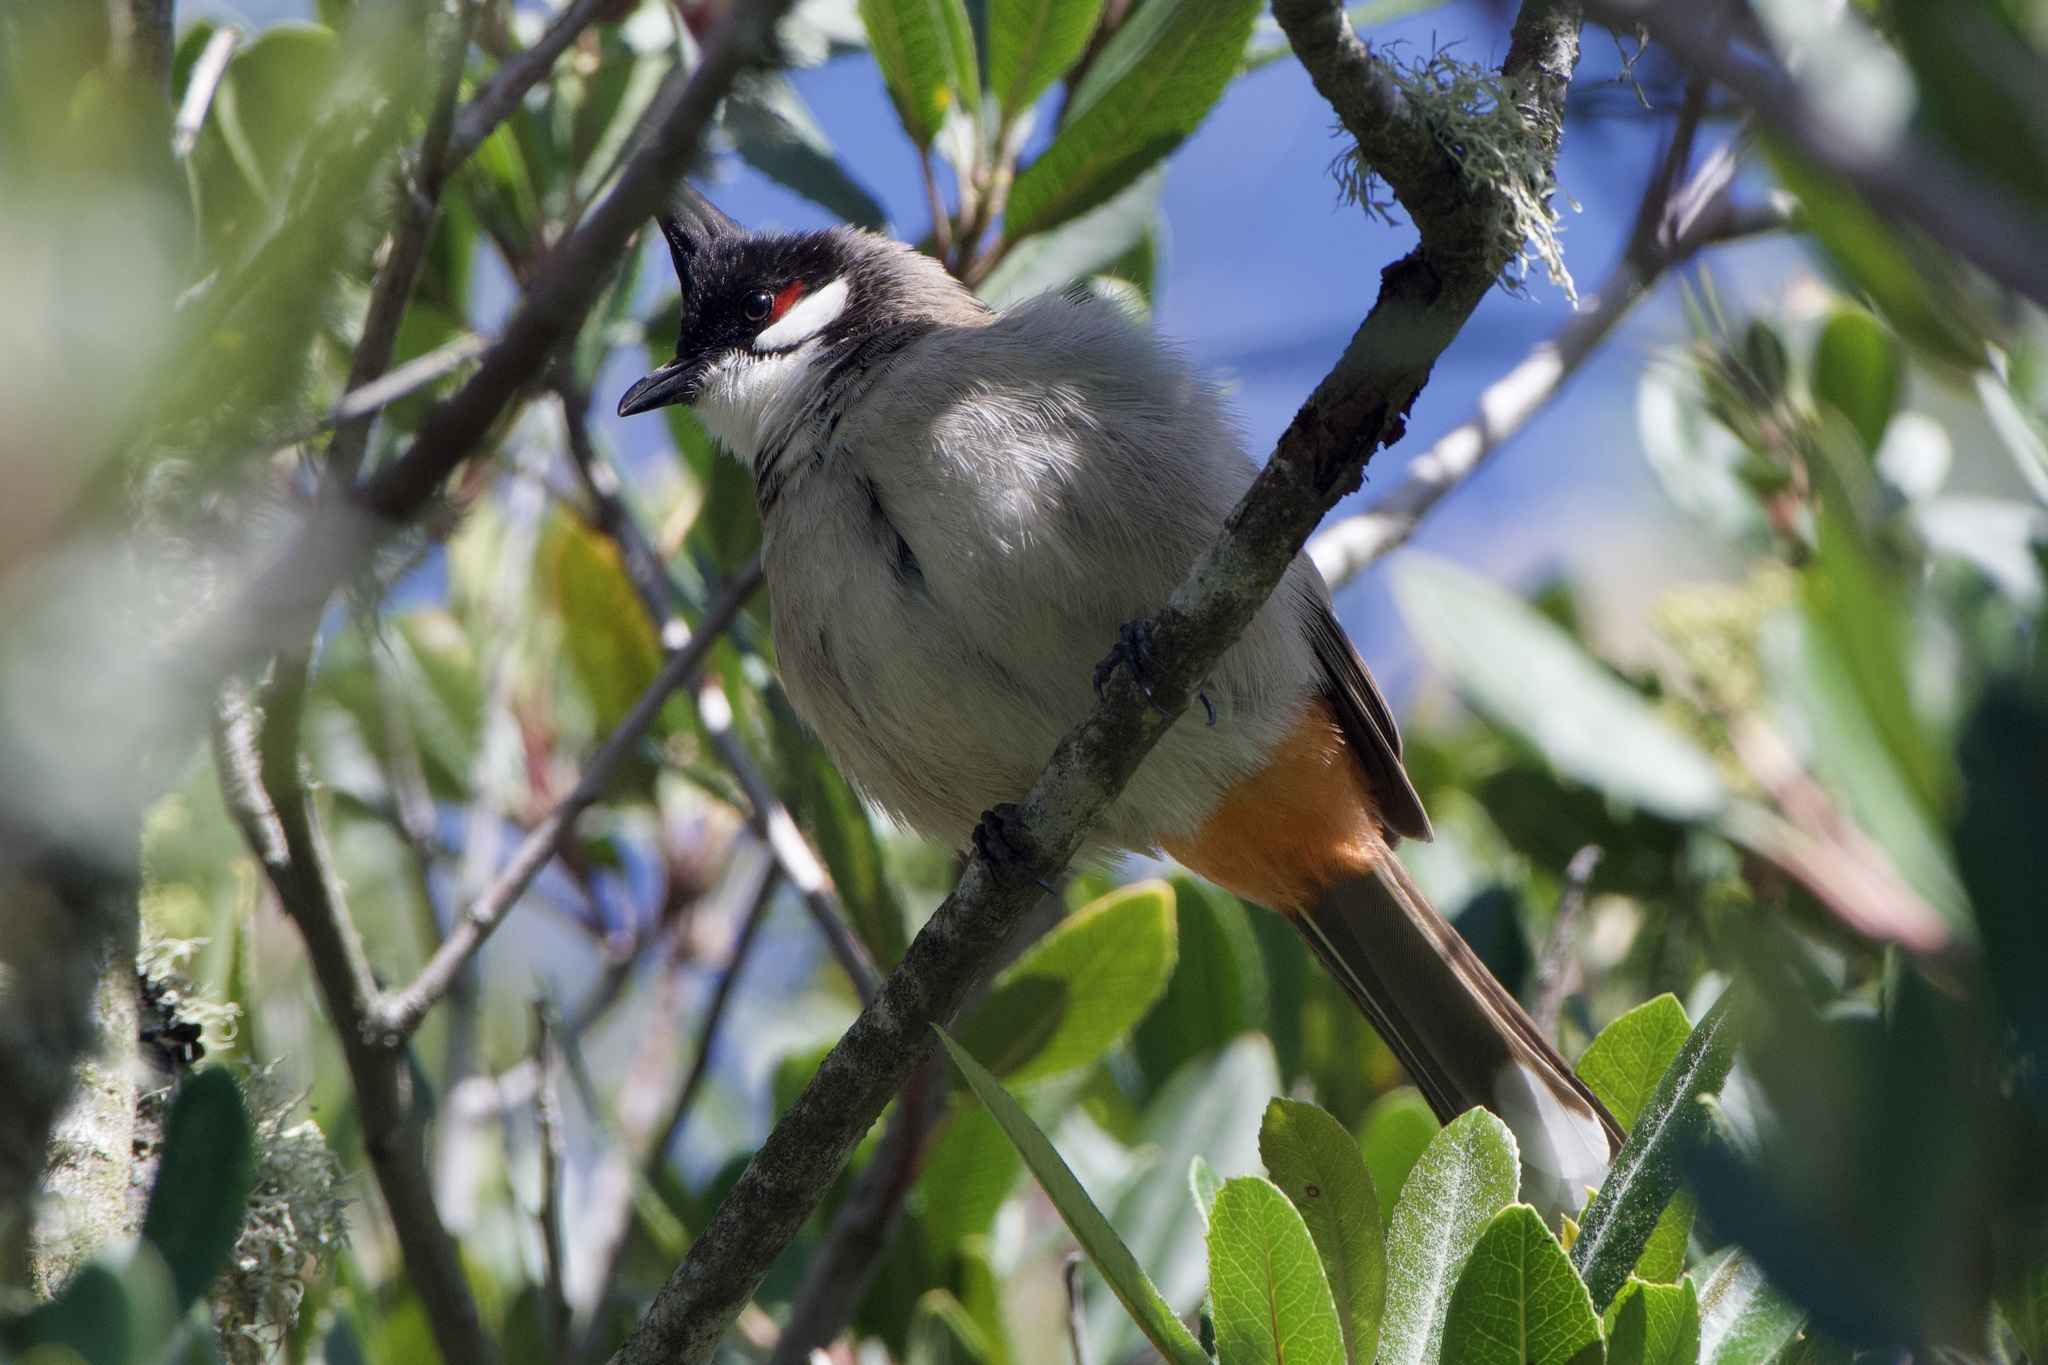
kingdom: Animalia
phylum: Chordata
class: Aves
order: Passeriformes
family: Pycnonotidae
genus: Pycnonotus
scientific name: Pycnonotus jocosus
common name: Red-whiskered bulbul
